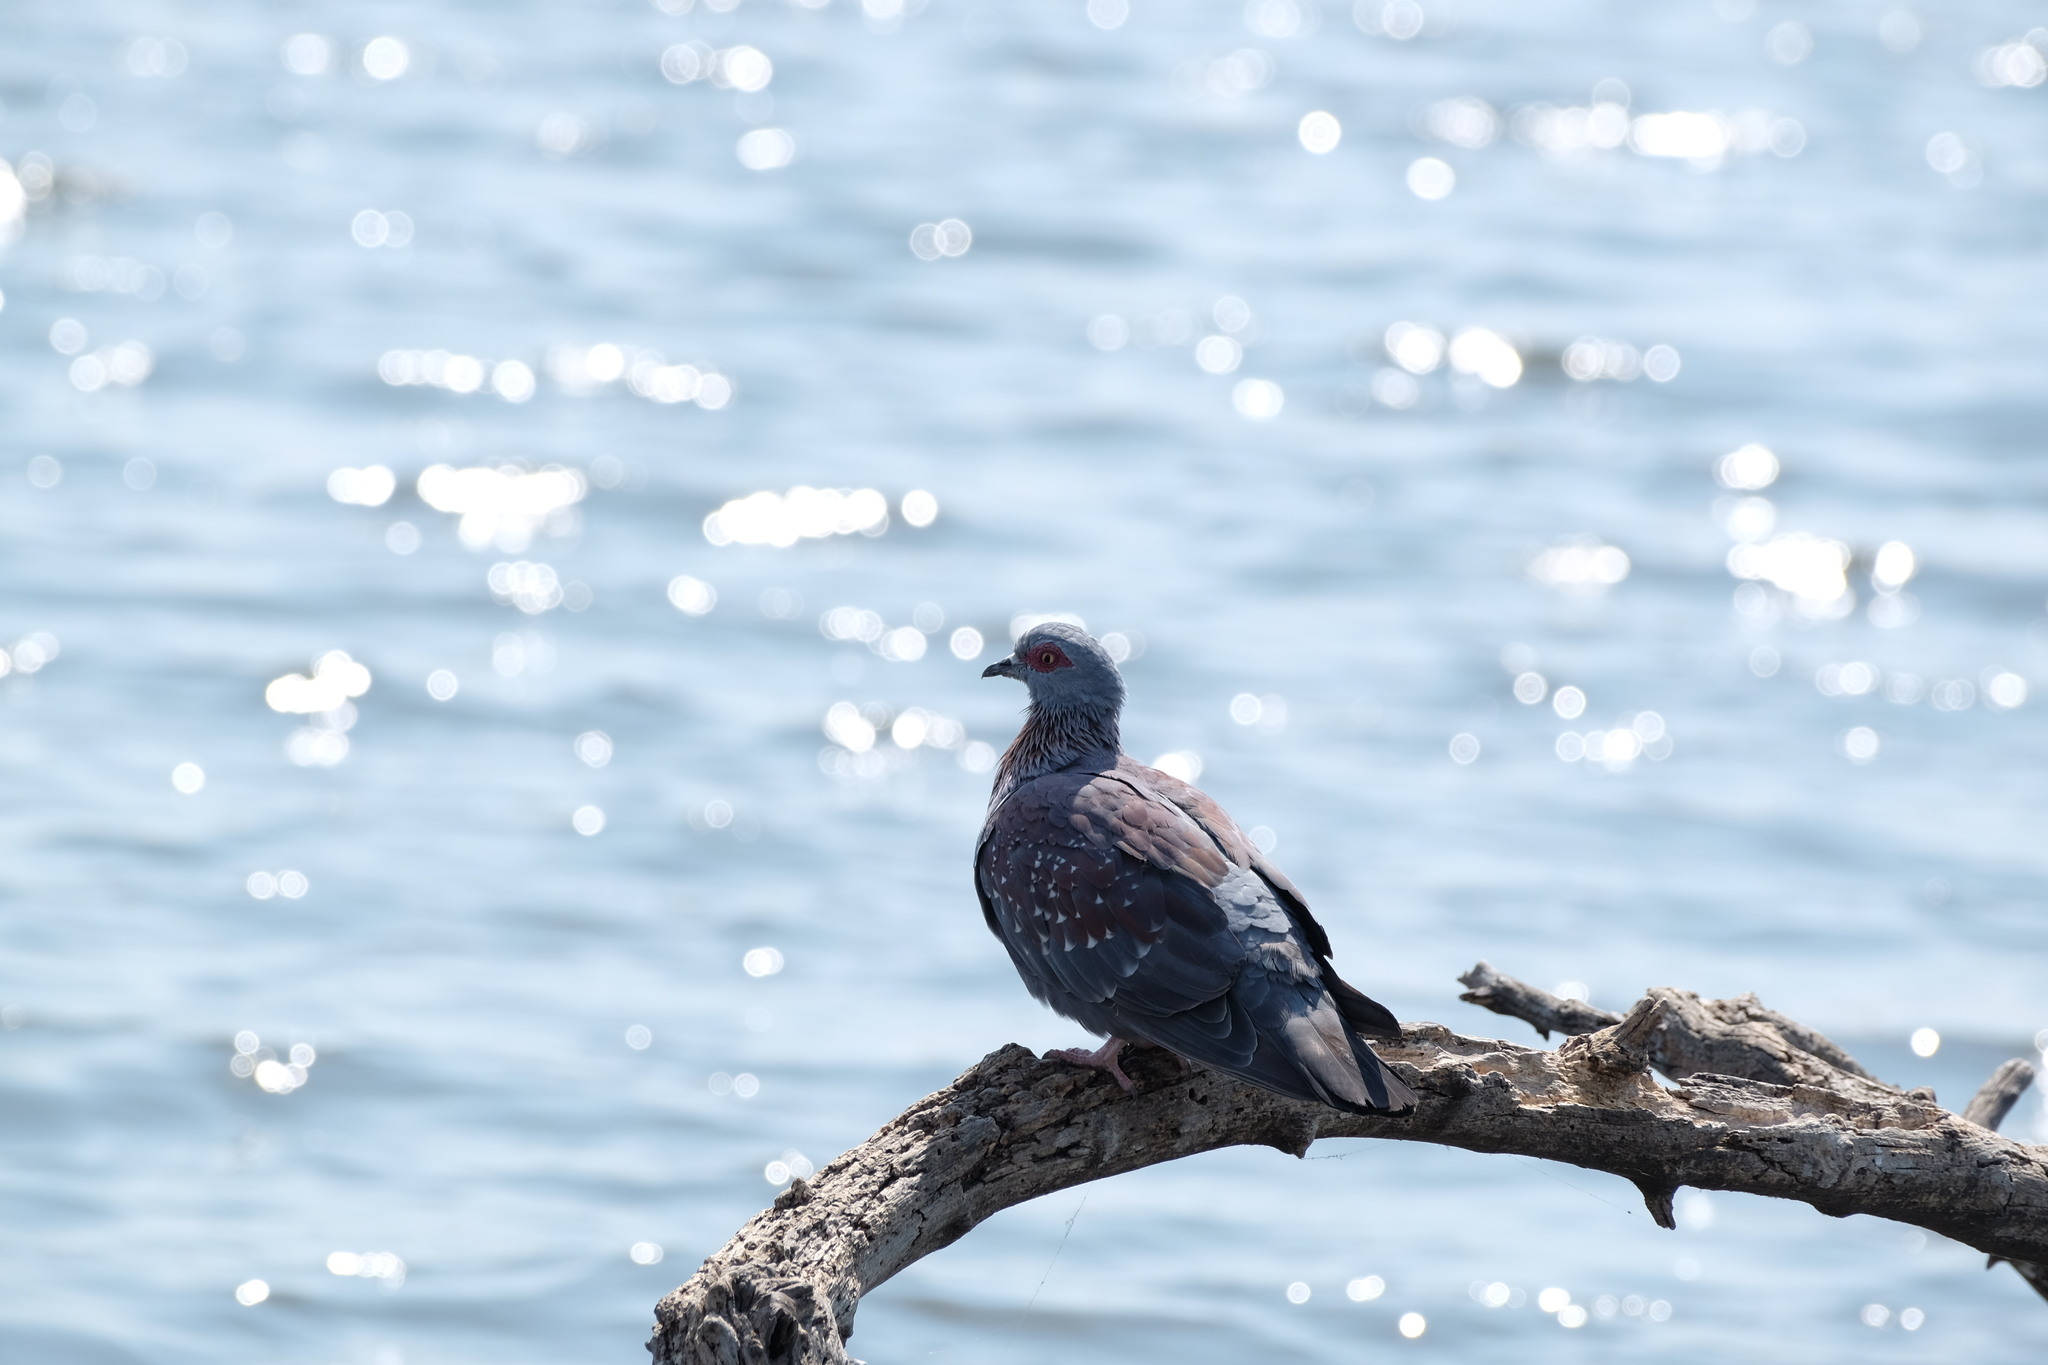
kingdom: Animalia
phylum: Chordata
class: Aves
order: Columbiformes
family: Columbidae
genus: Columba
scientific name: Columba guinea
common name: Speckled pigeon
